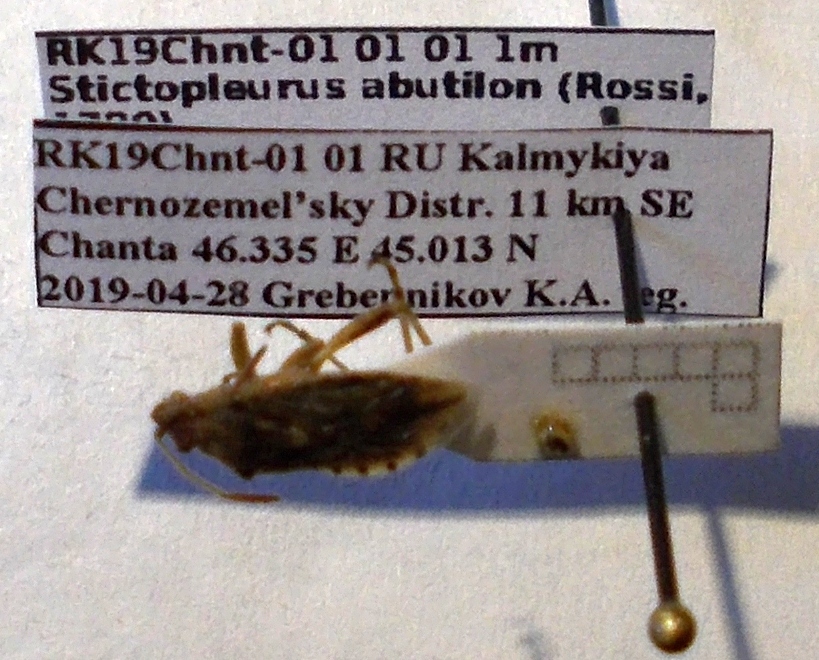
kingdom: Animalia
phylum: Arthropoda
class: Insecta
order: Hemiptera
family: Rhopalidae
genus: Stictopleurus
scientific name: Stictopleurus abutilon
